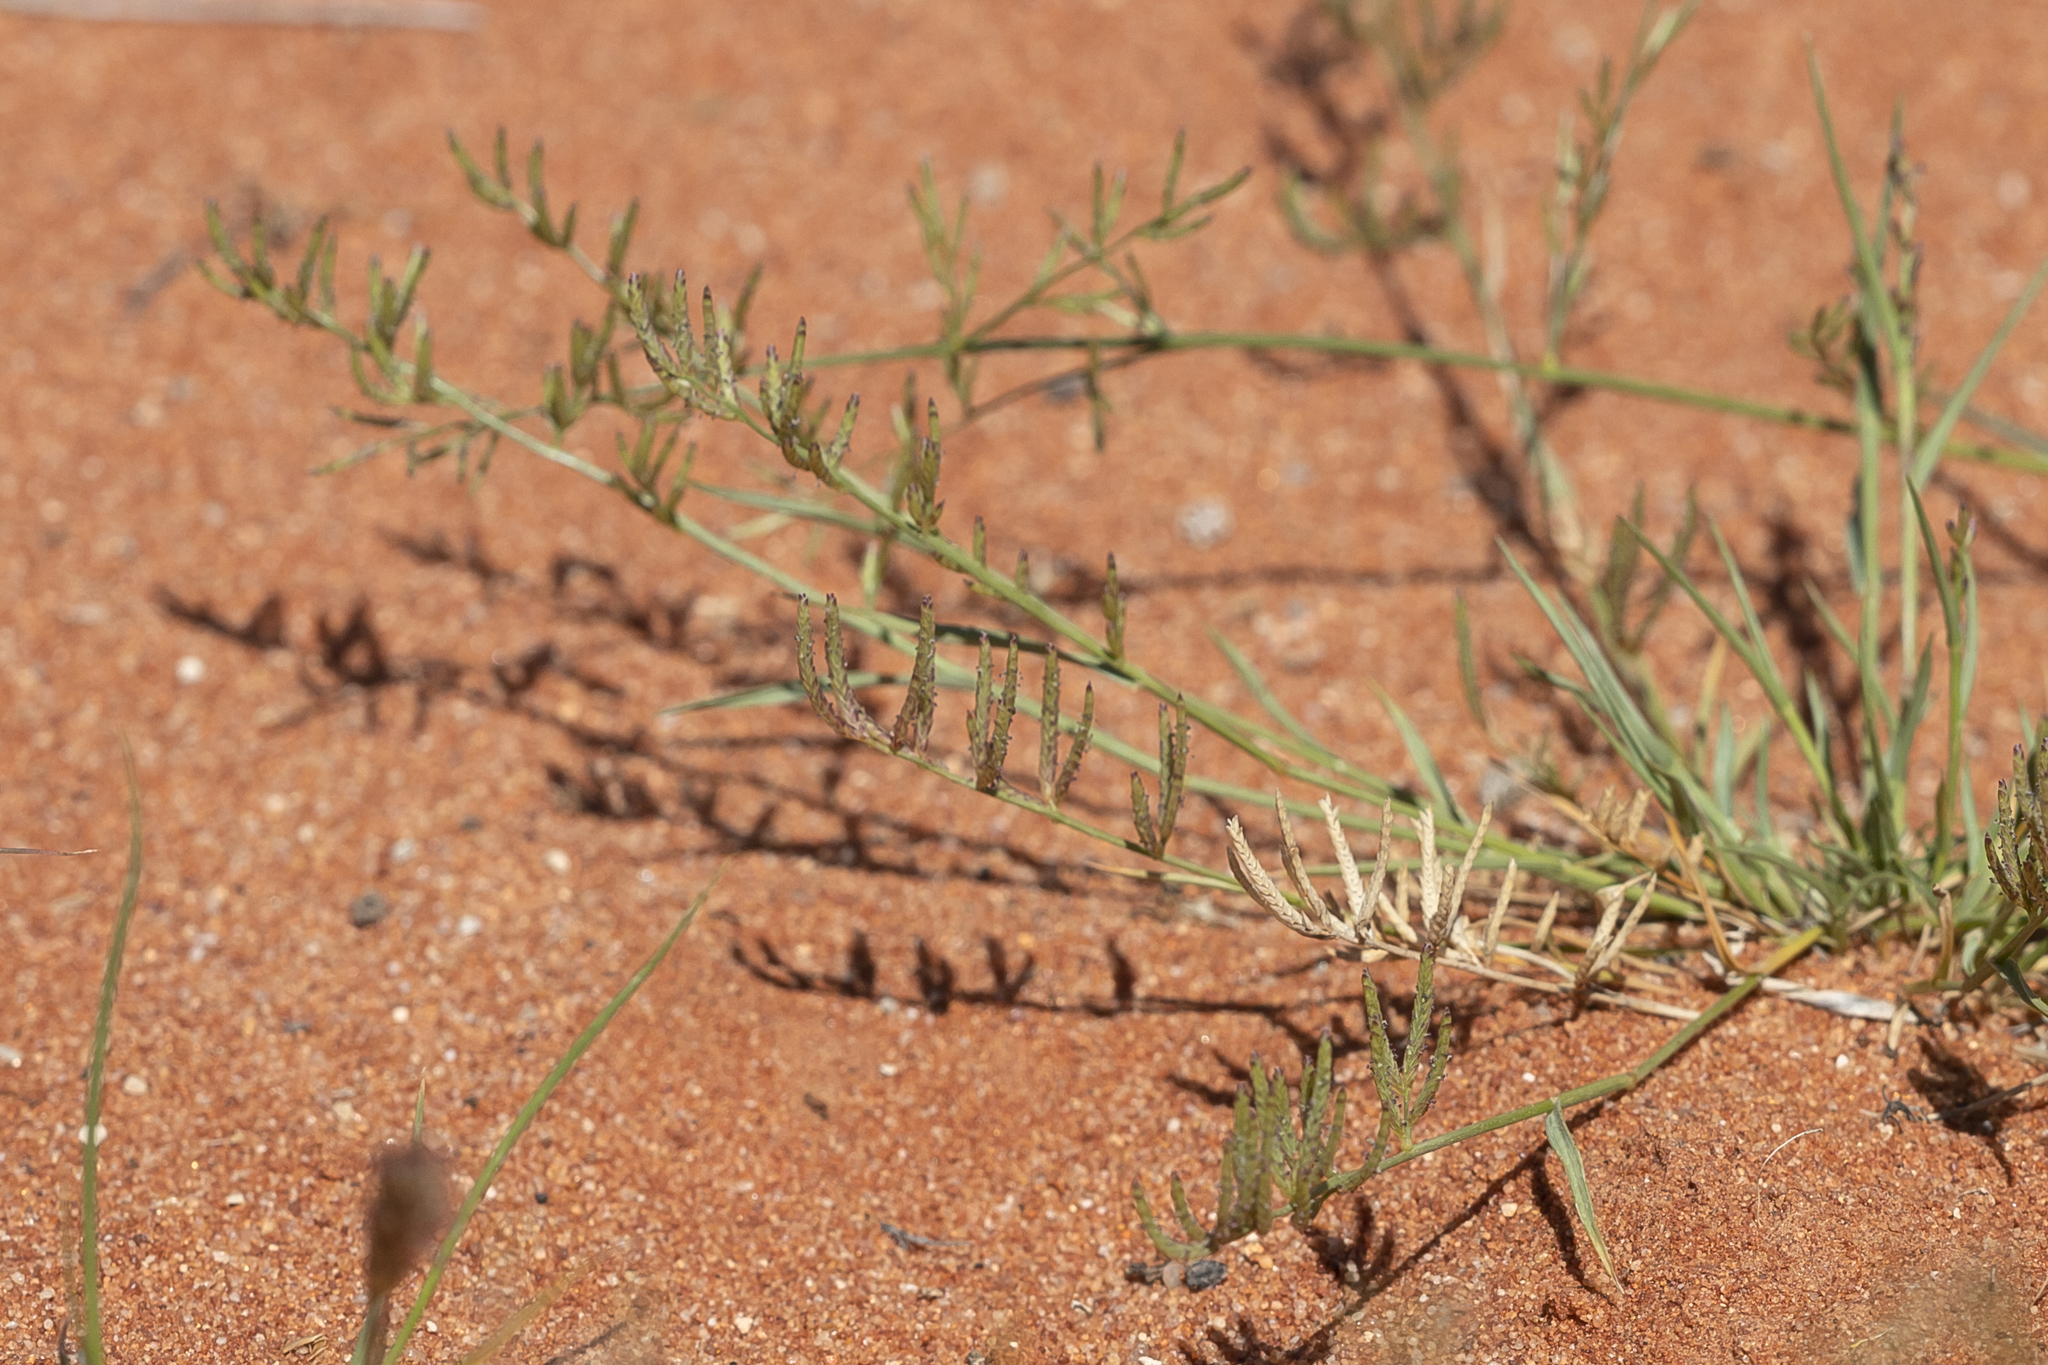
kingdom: Plantae
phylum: Tracheophyta
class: Liliopsida
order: Poales
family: Poaceae
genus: Eragrostis
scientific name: Eragrostis dielsii
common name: Lovegrass
